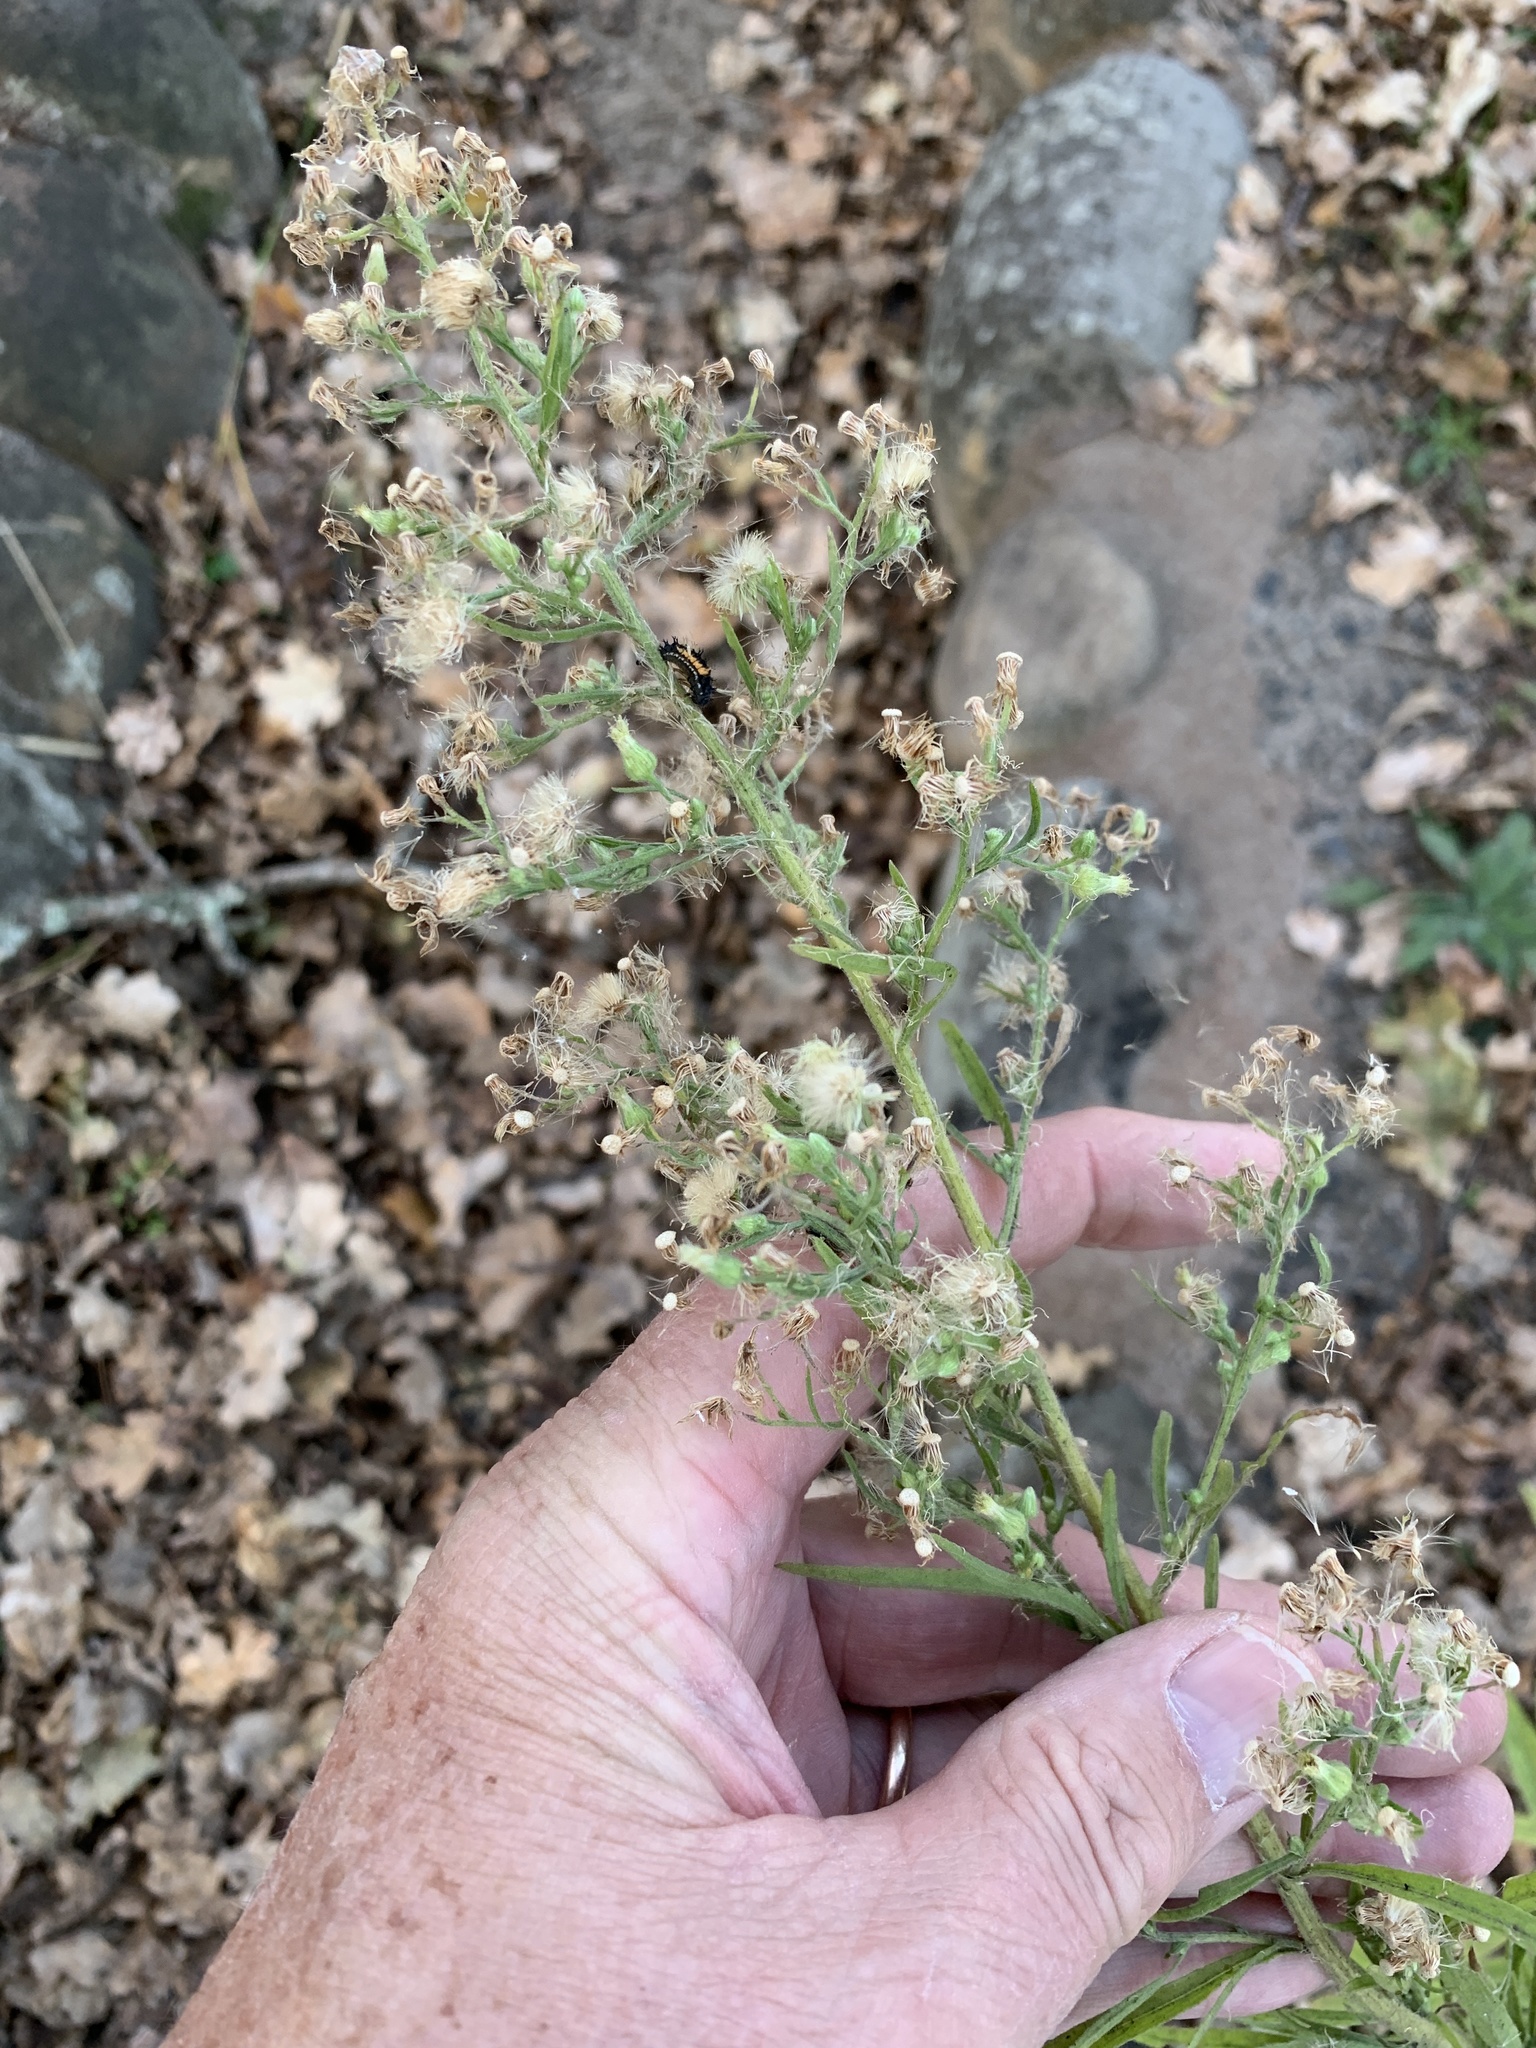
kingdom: Plantae
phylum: Tracheophyta
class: Magnoliopsida
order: Asterales
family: Asteraceae
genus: Erigeron
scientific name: Erigeron sumatrensis
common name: Daisy
